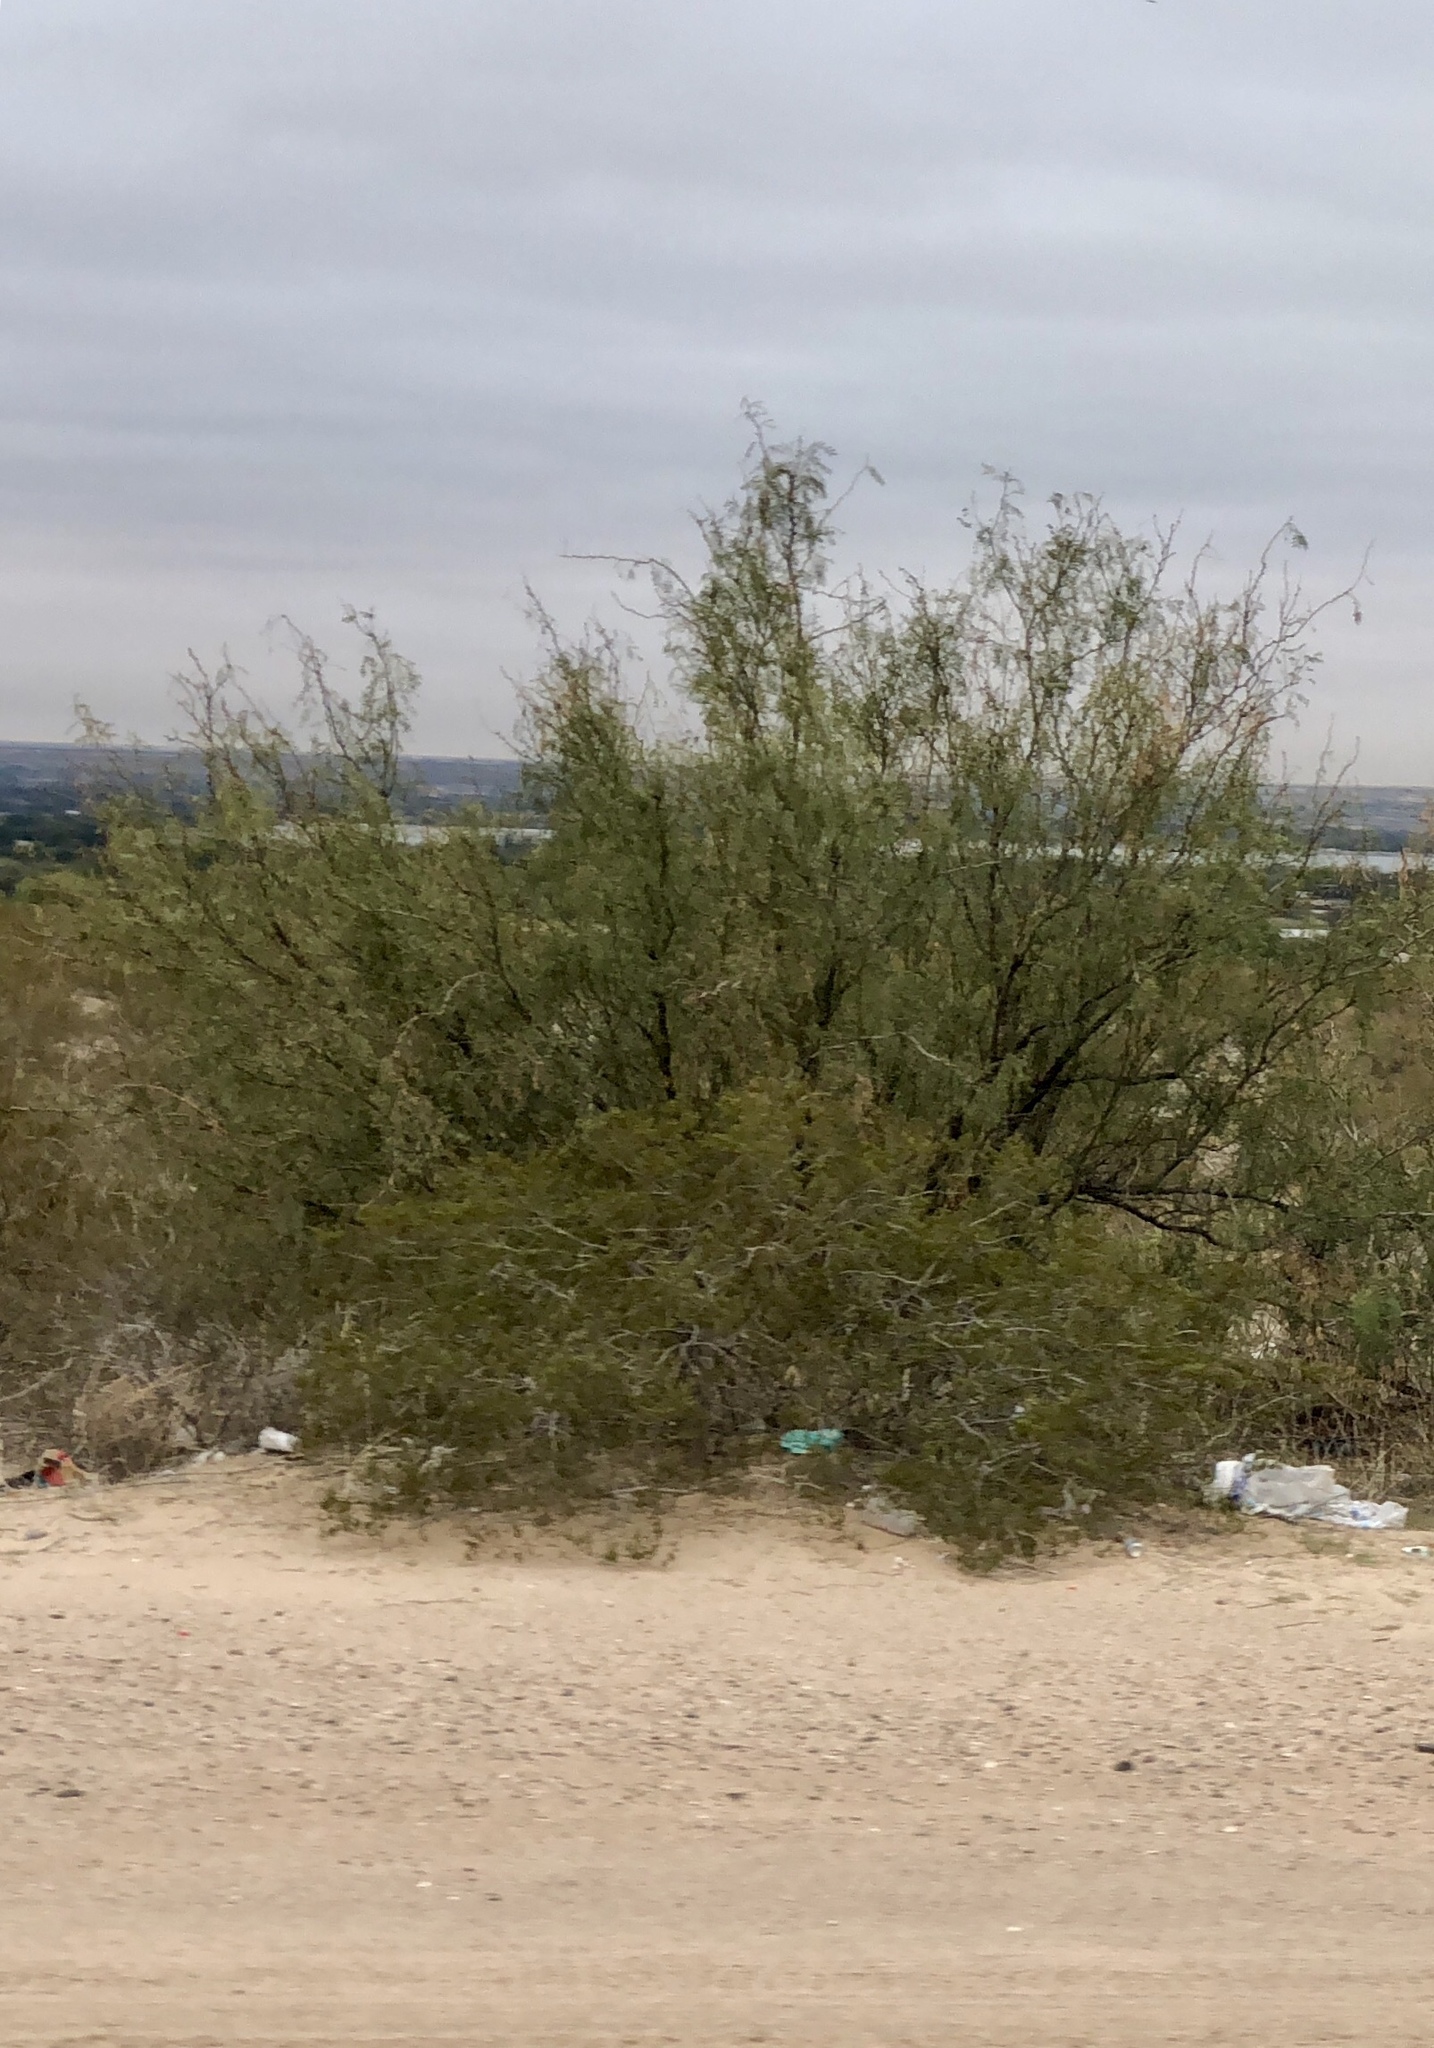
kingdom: Plantae
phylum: Tracheophyta
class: Magnoliopsida
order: Fabales
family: Fabaceae
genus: Prosopis
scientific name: Prosopis glandulosa
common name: Honey mesquite
